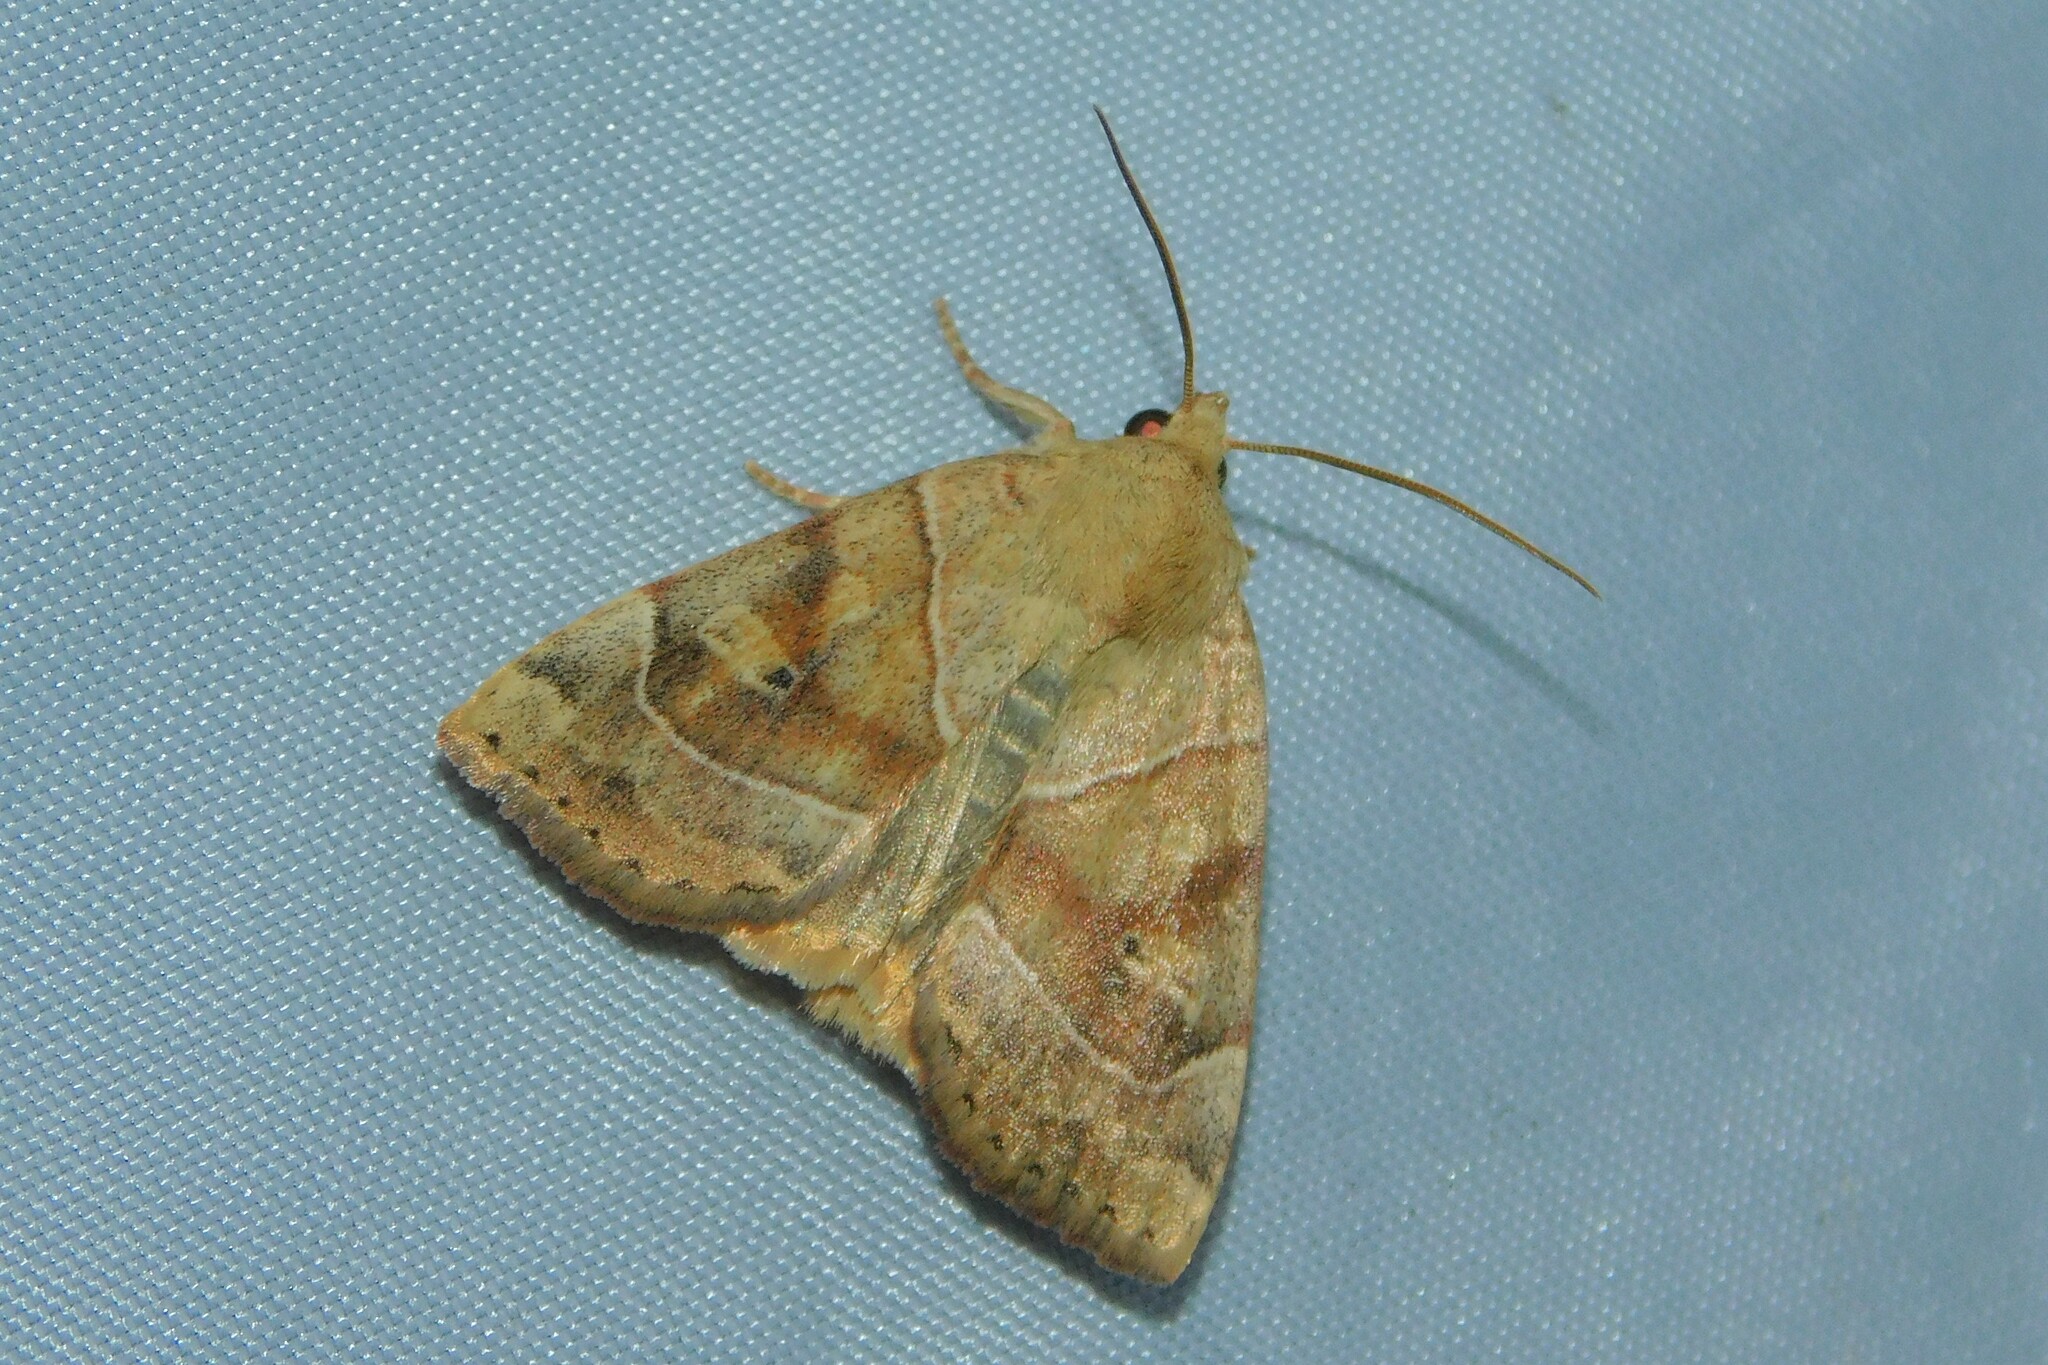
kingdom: Animalia
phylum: Arthropoda
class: Insecta
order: Lepidoptera
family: Noctuidae
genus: Cosmia
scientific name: Cosmia trapezina
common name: Dun-bar
